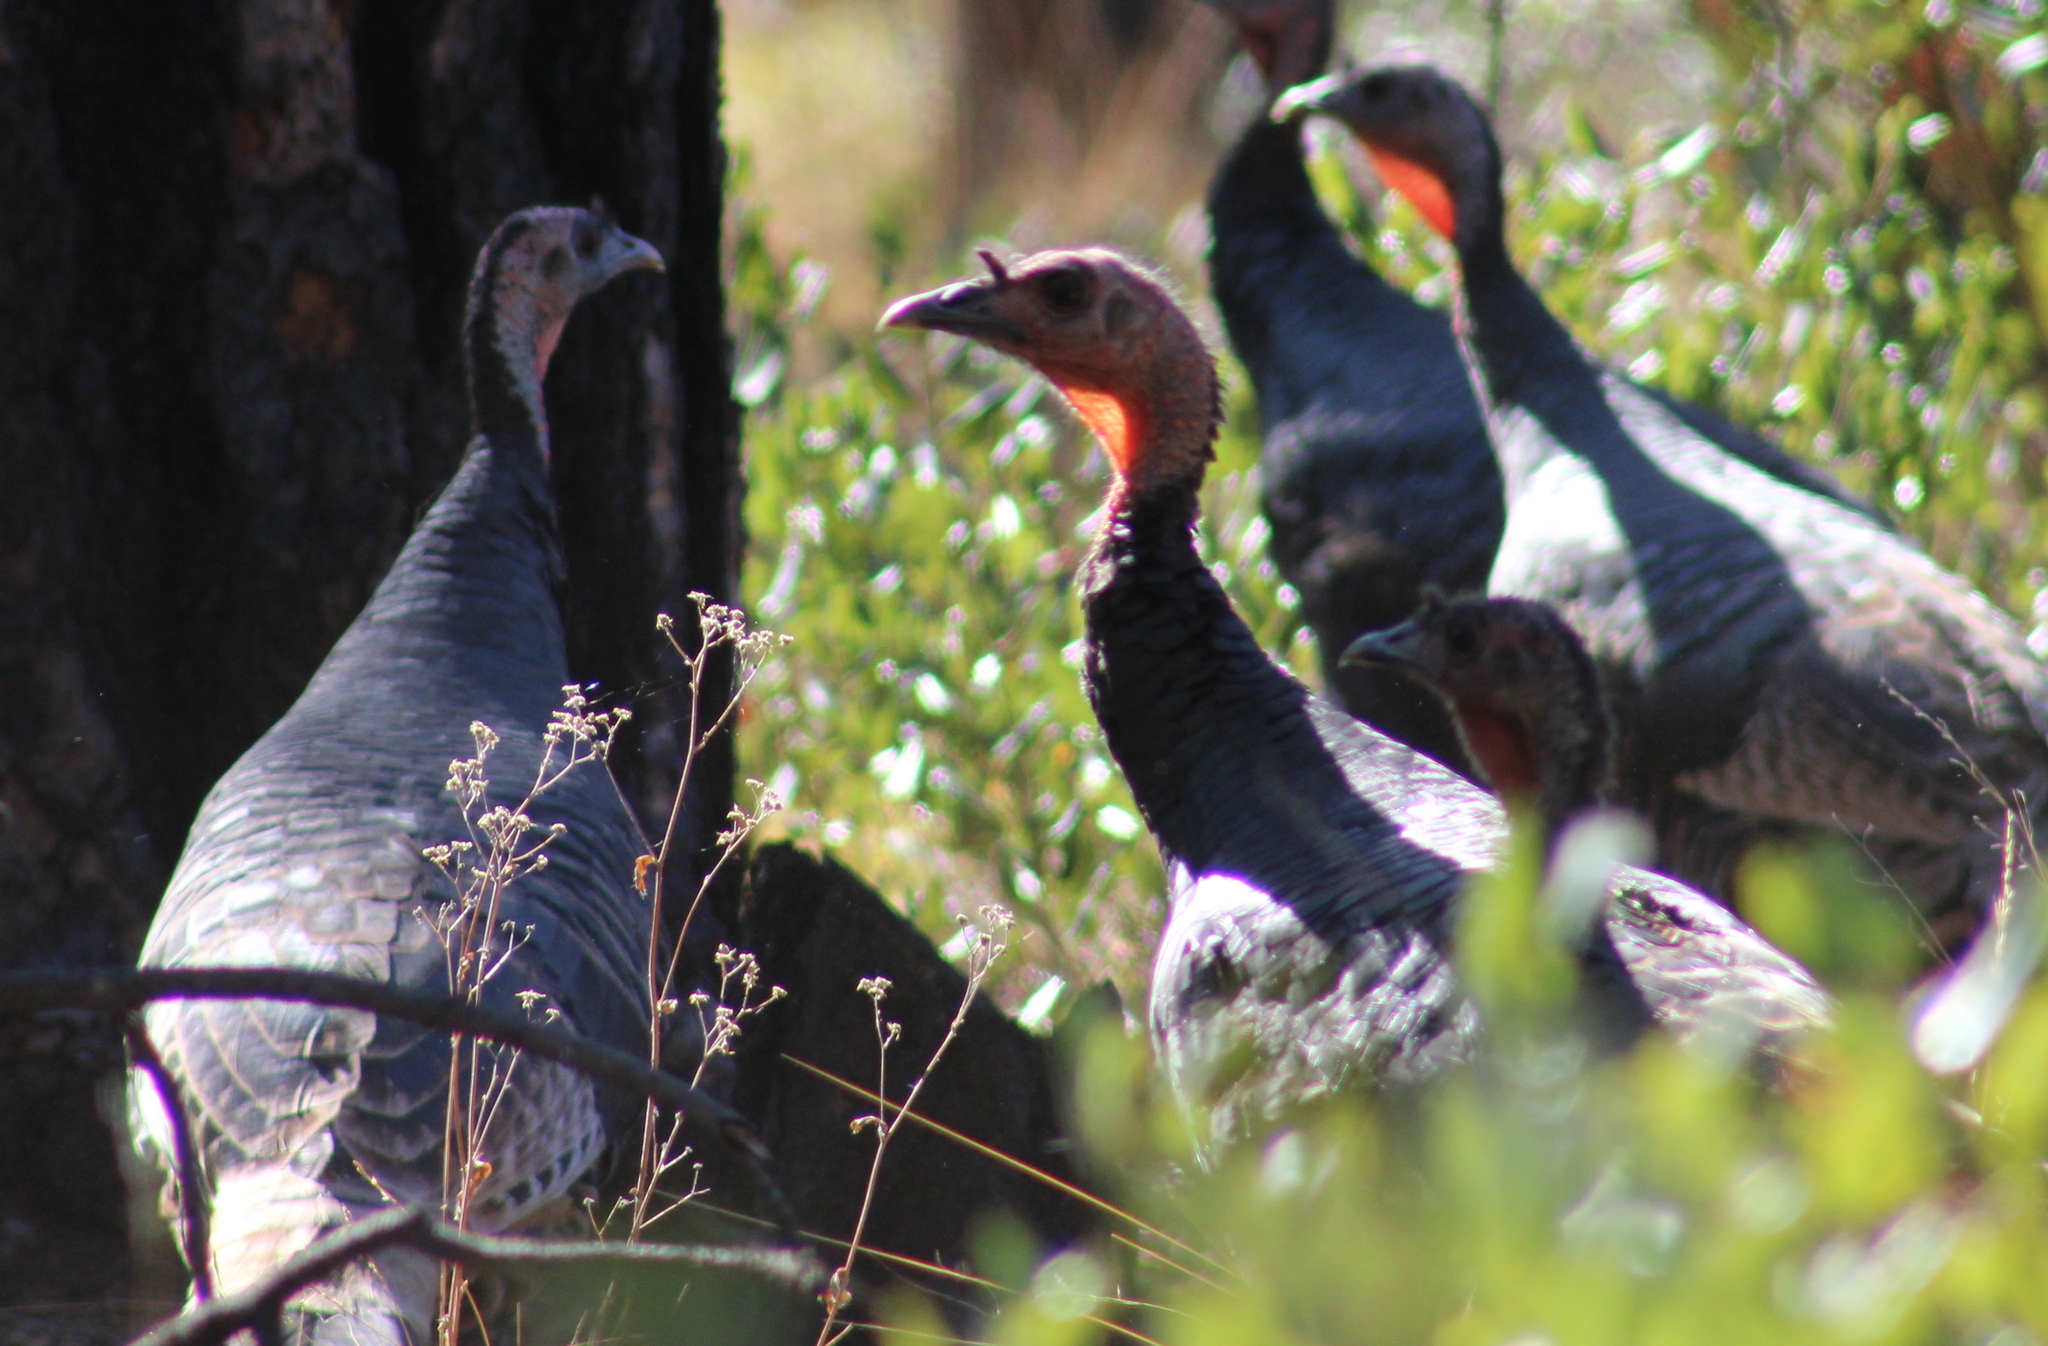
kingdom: Animalia
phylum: Chordata
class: Aves
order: Galliformes
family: Phasianidae
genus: Meleagris
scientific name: Meleagris gallopavo
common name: Wild turkey
